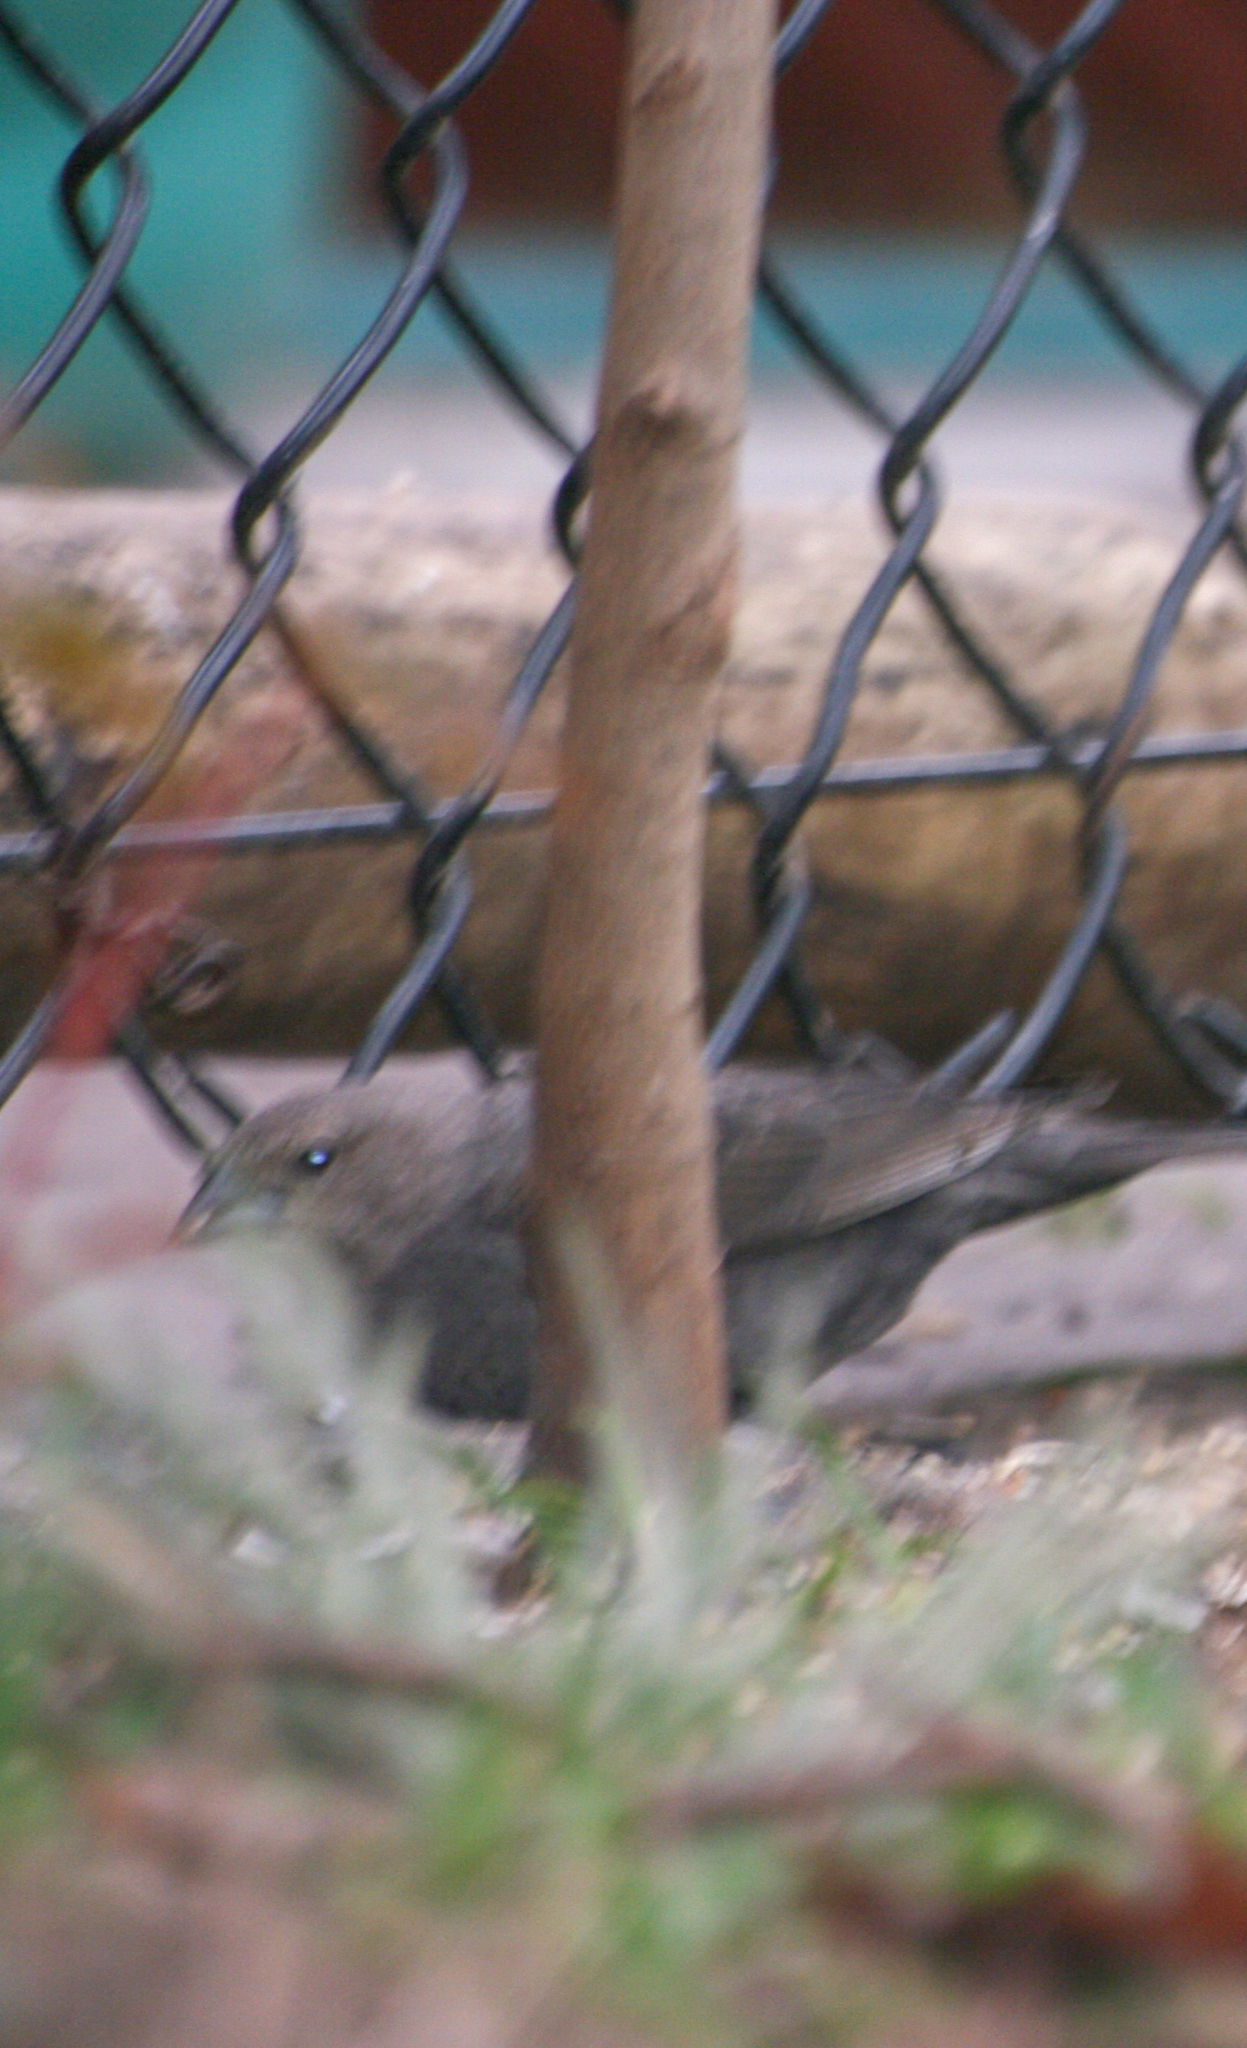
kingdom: Animalia
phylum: Chordata
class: Aves
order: Passeriformes
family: Icteridae
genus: Molothrus
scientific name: Molothrus ater
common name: Brown-headed cowbird
